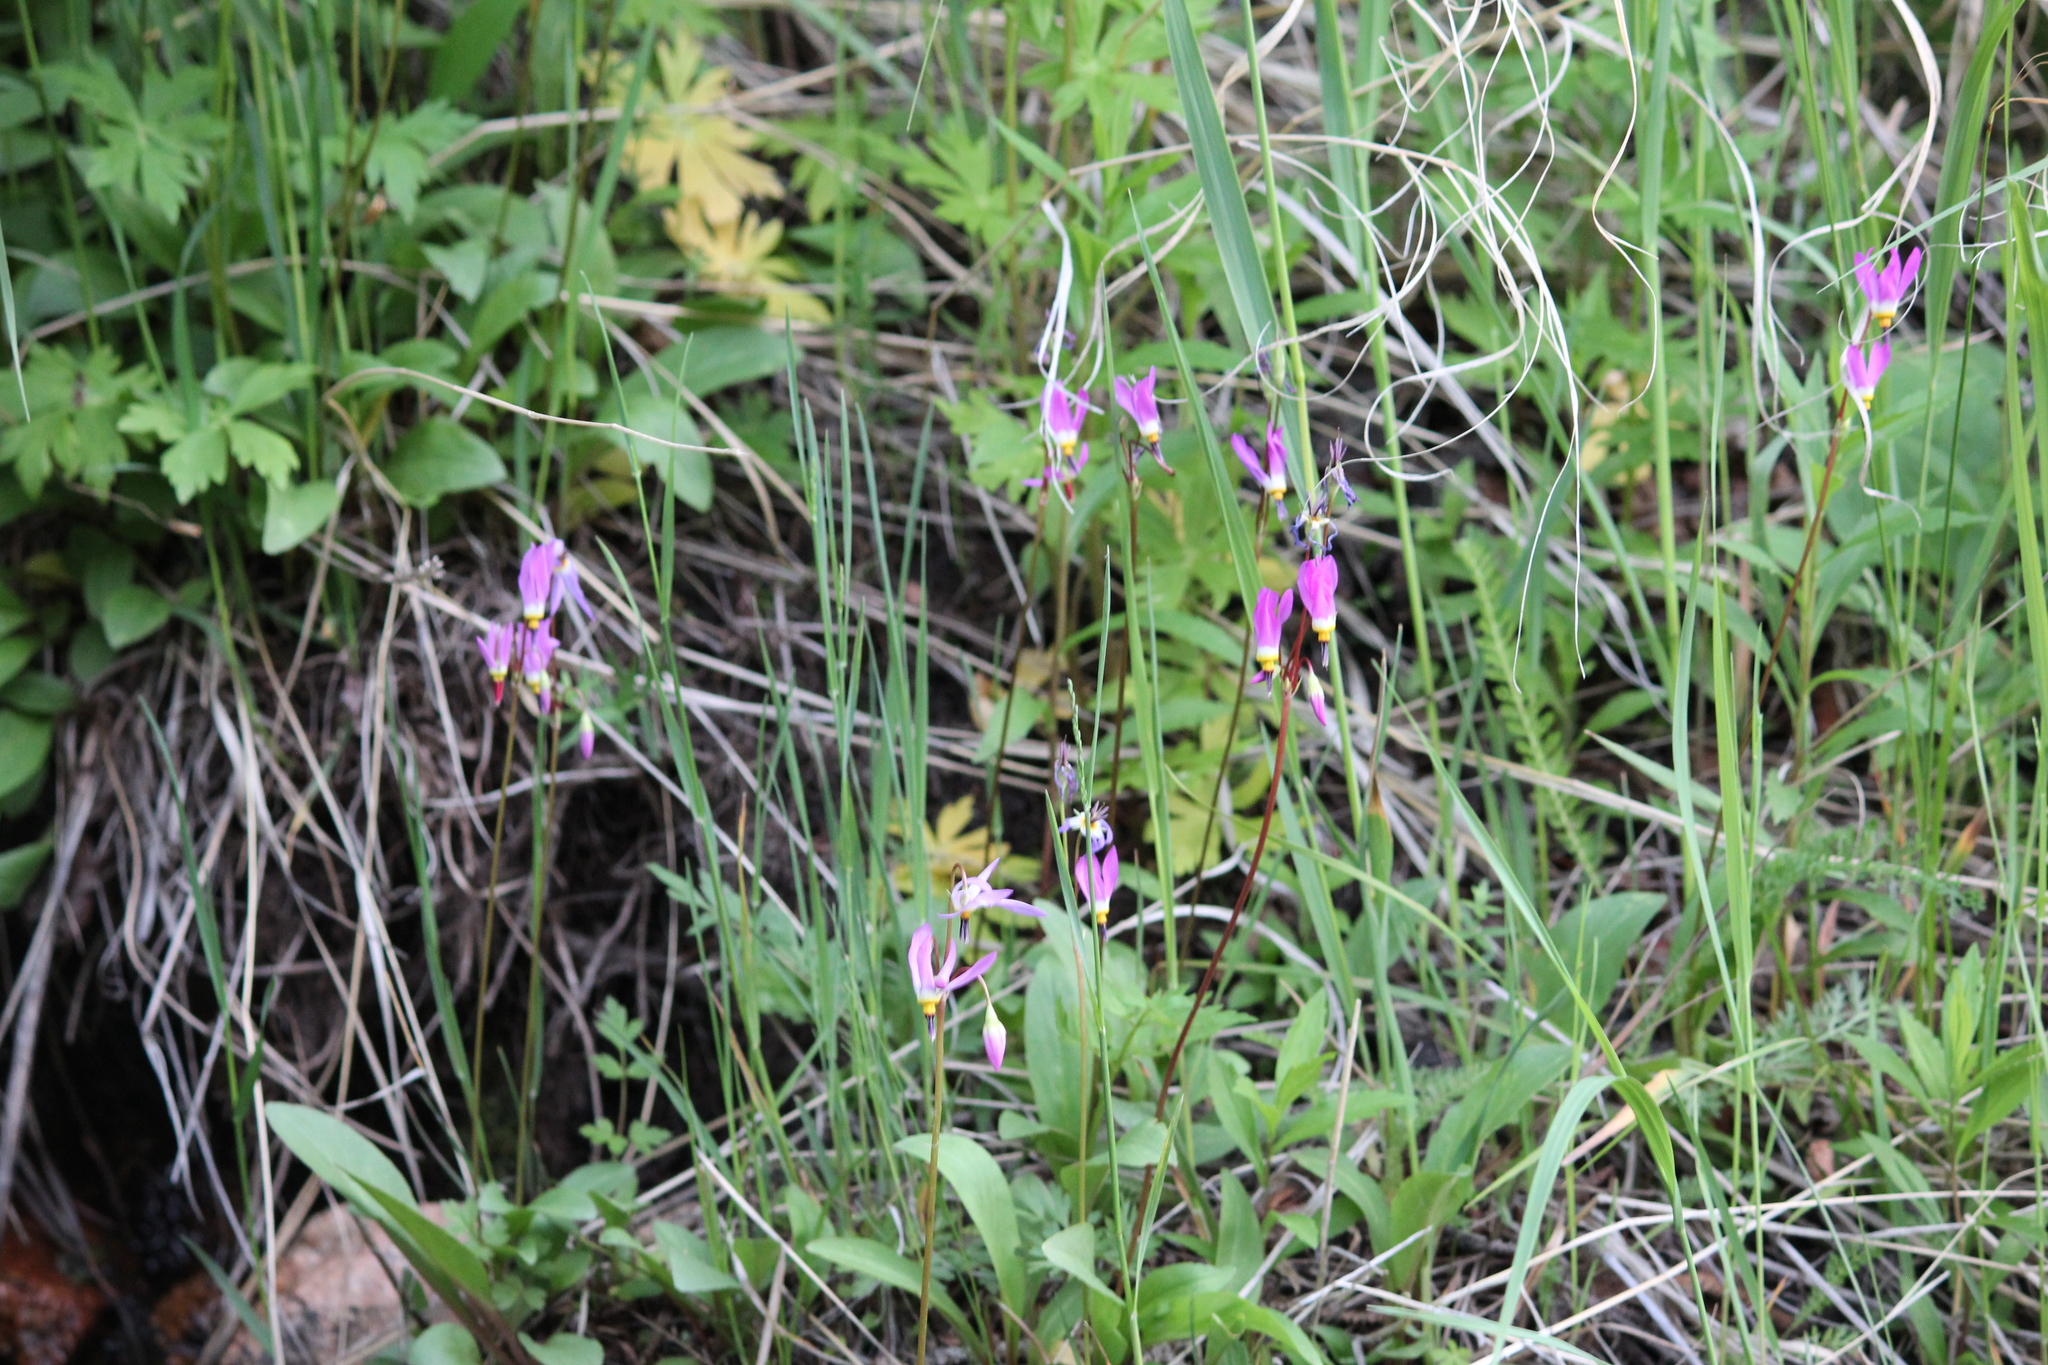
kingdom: Plantae
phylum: Tracheophyta
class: Magnoliopsida
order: Ericales
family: Primulaceae
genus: Dodecatheon
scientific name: Dodecatheon pulchellum
